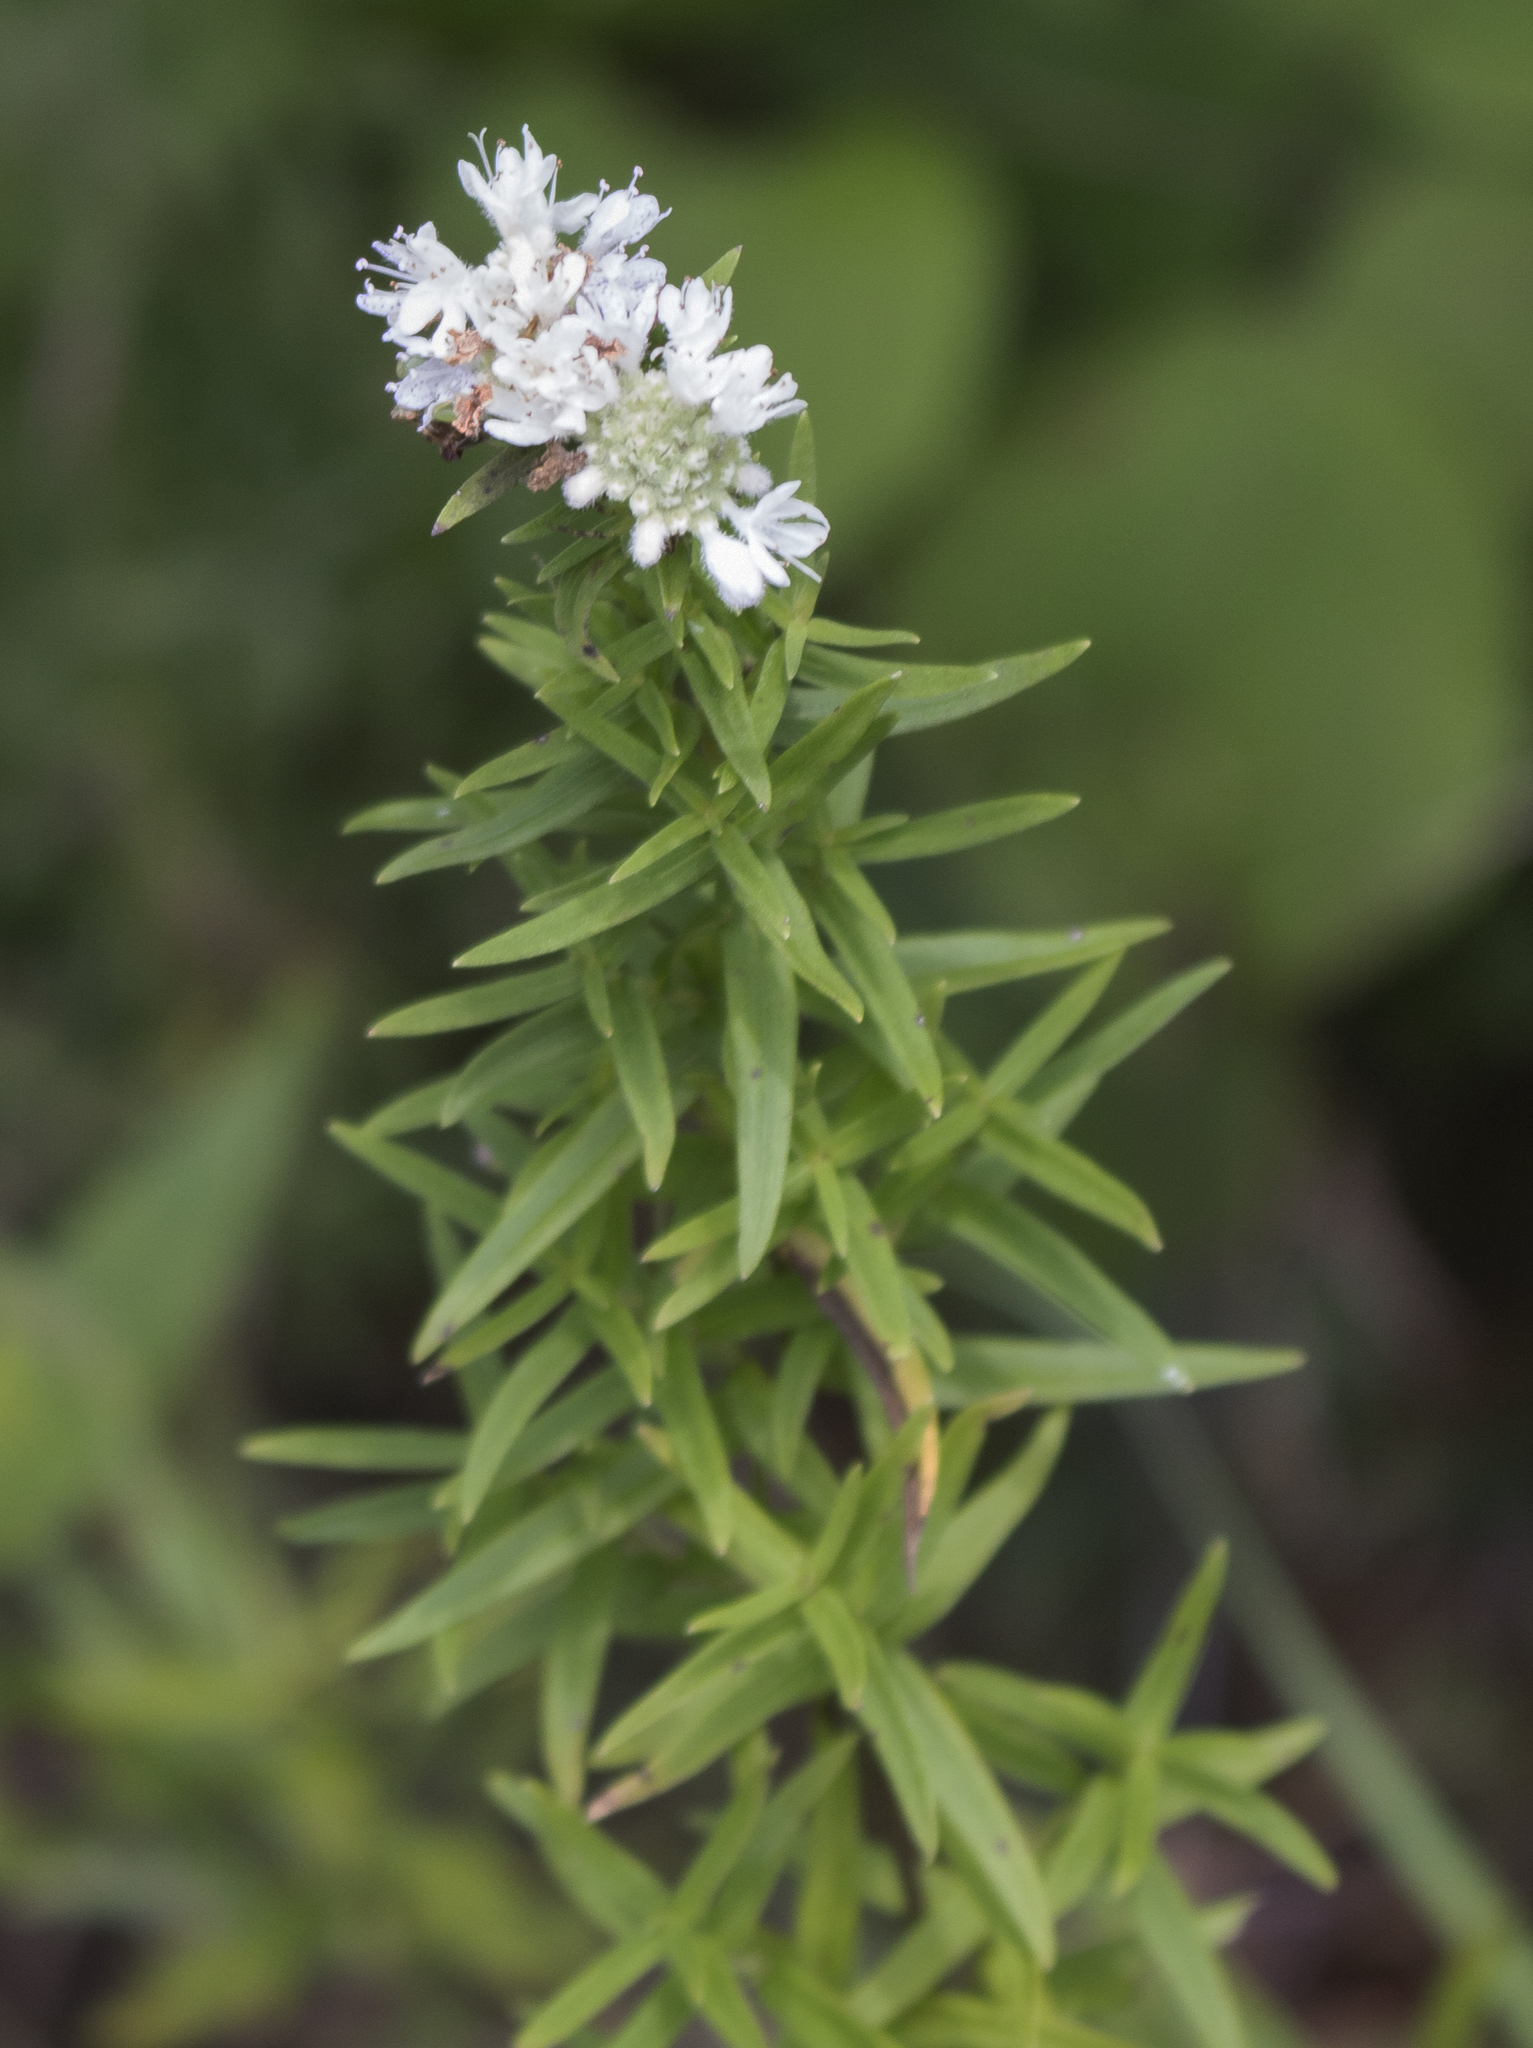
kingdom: Plantae
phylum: Tracheophyta
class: Magnoliopsida
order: Lamiales
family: Lamiaceae
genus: Pycnanthemum
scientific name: Pycnanthemum virginianum
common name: Virginia mountain-mint
